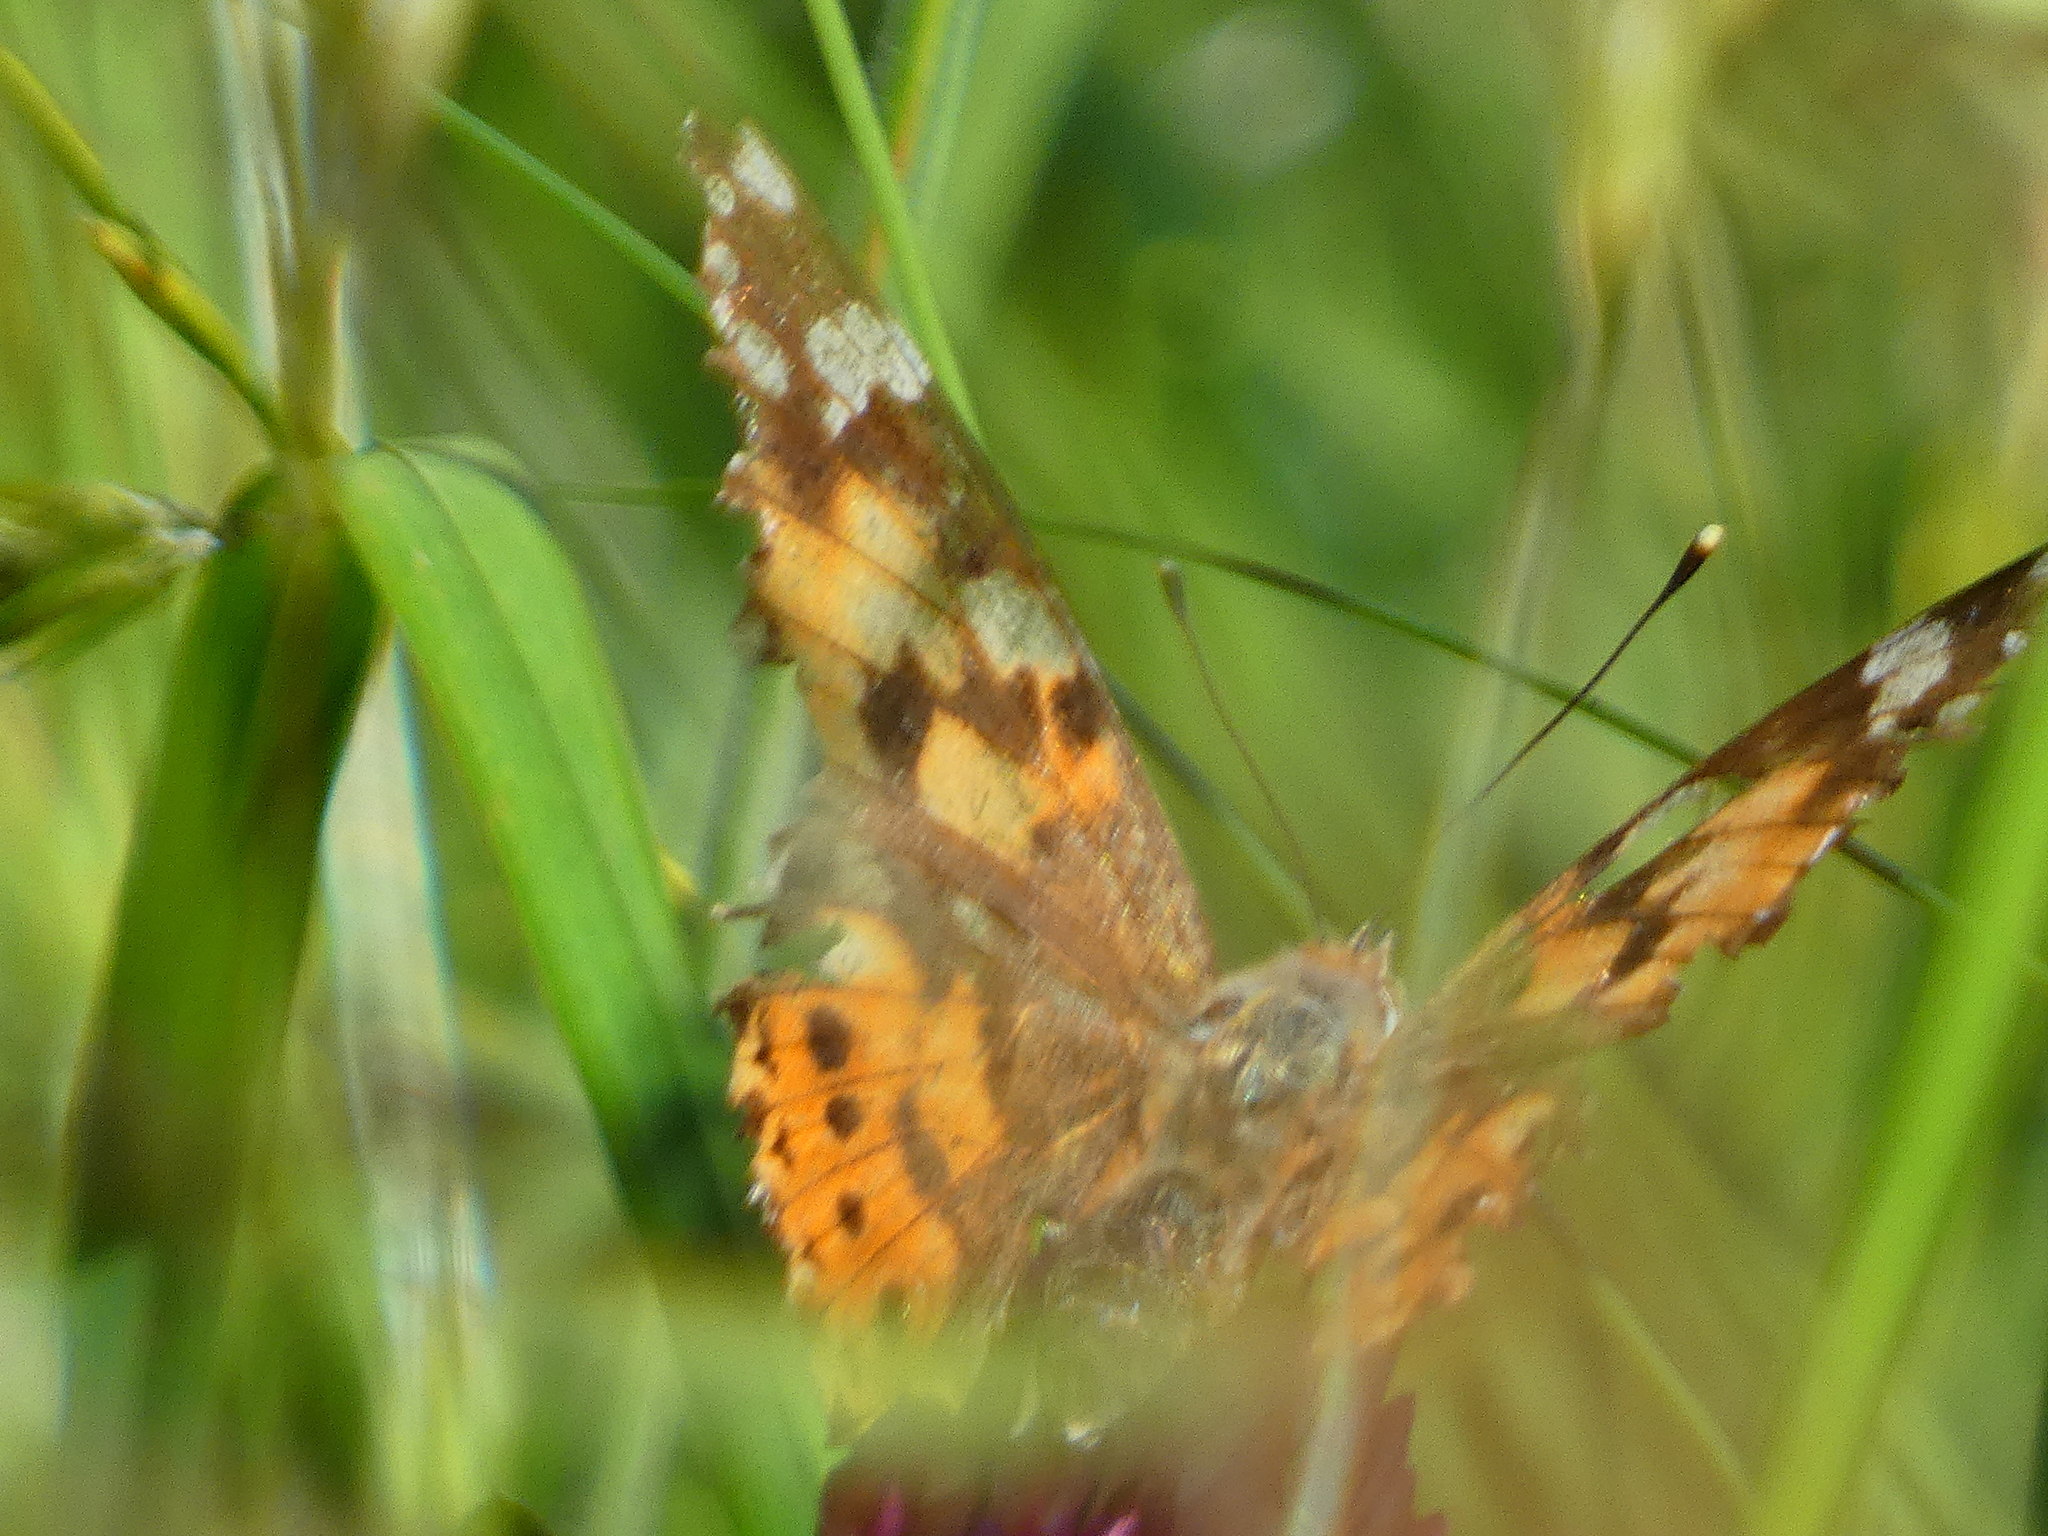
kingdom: Animalia
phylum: Arthropoda
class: Insecta
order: Lepidoptera
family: Nymphalidae
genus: Vanessa
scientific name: Vanessa cardui
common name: Painted lady
